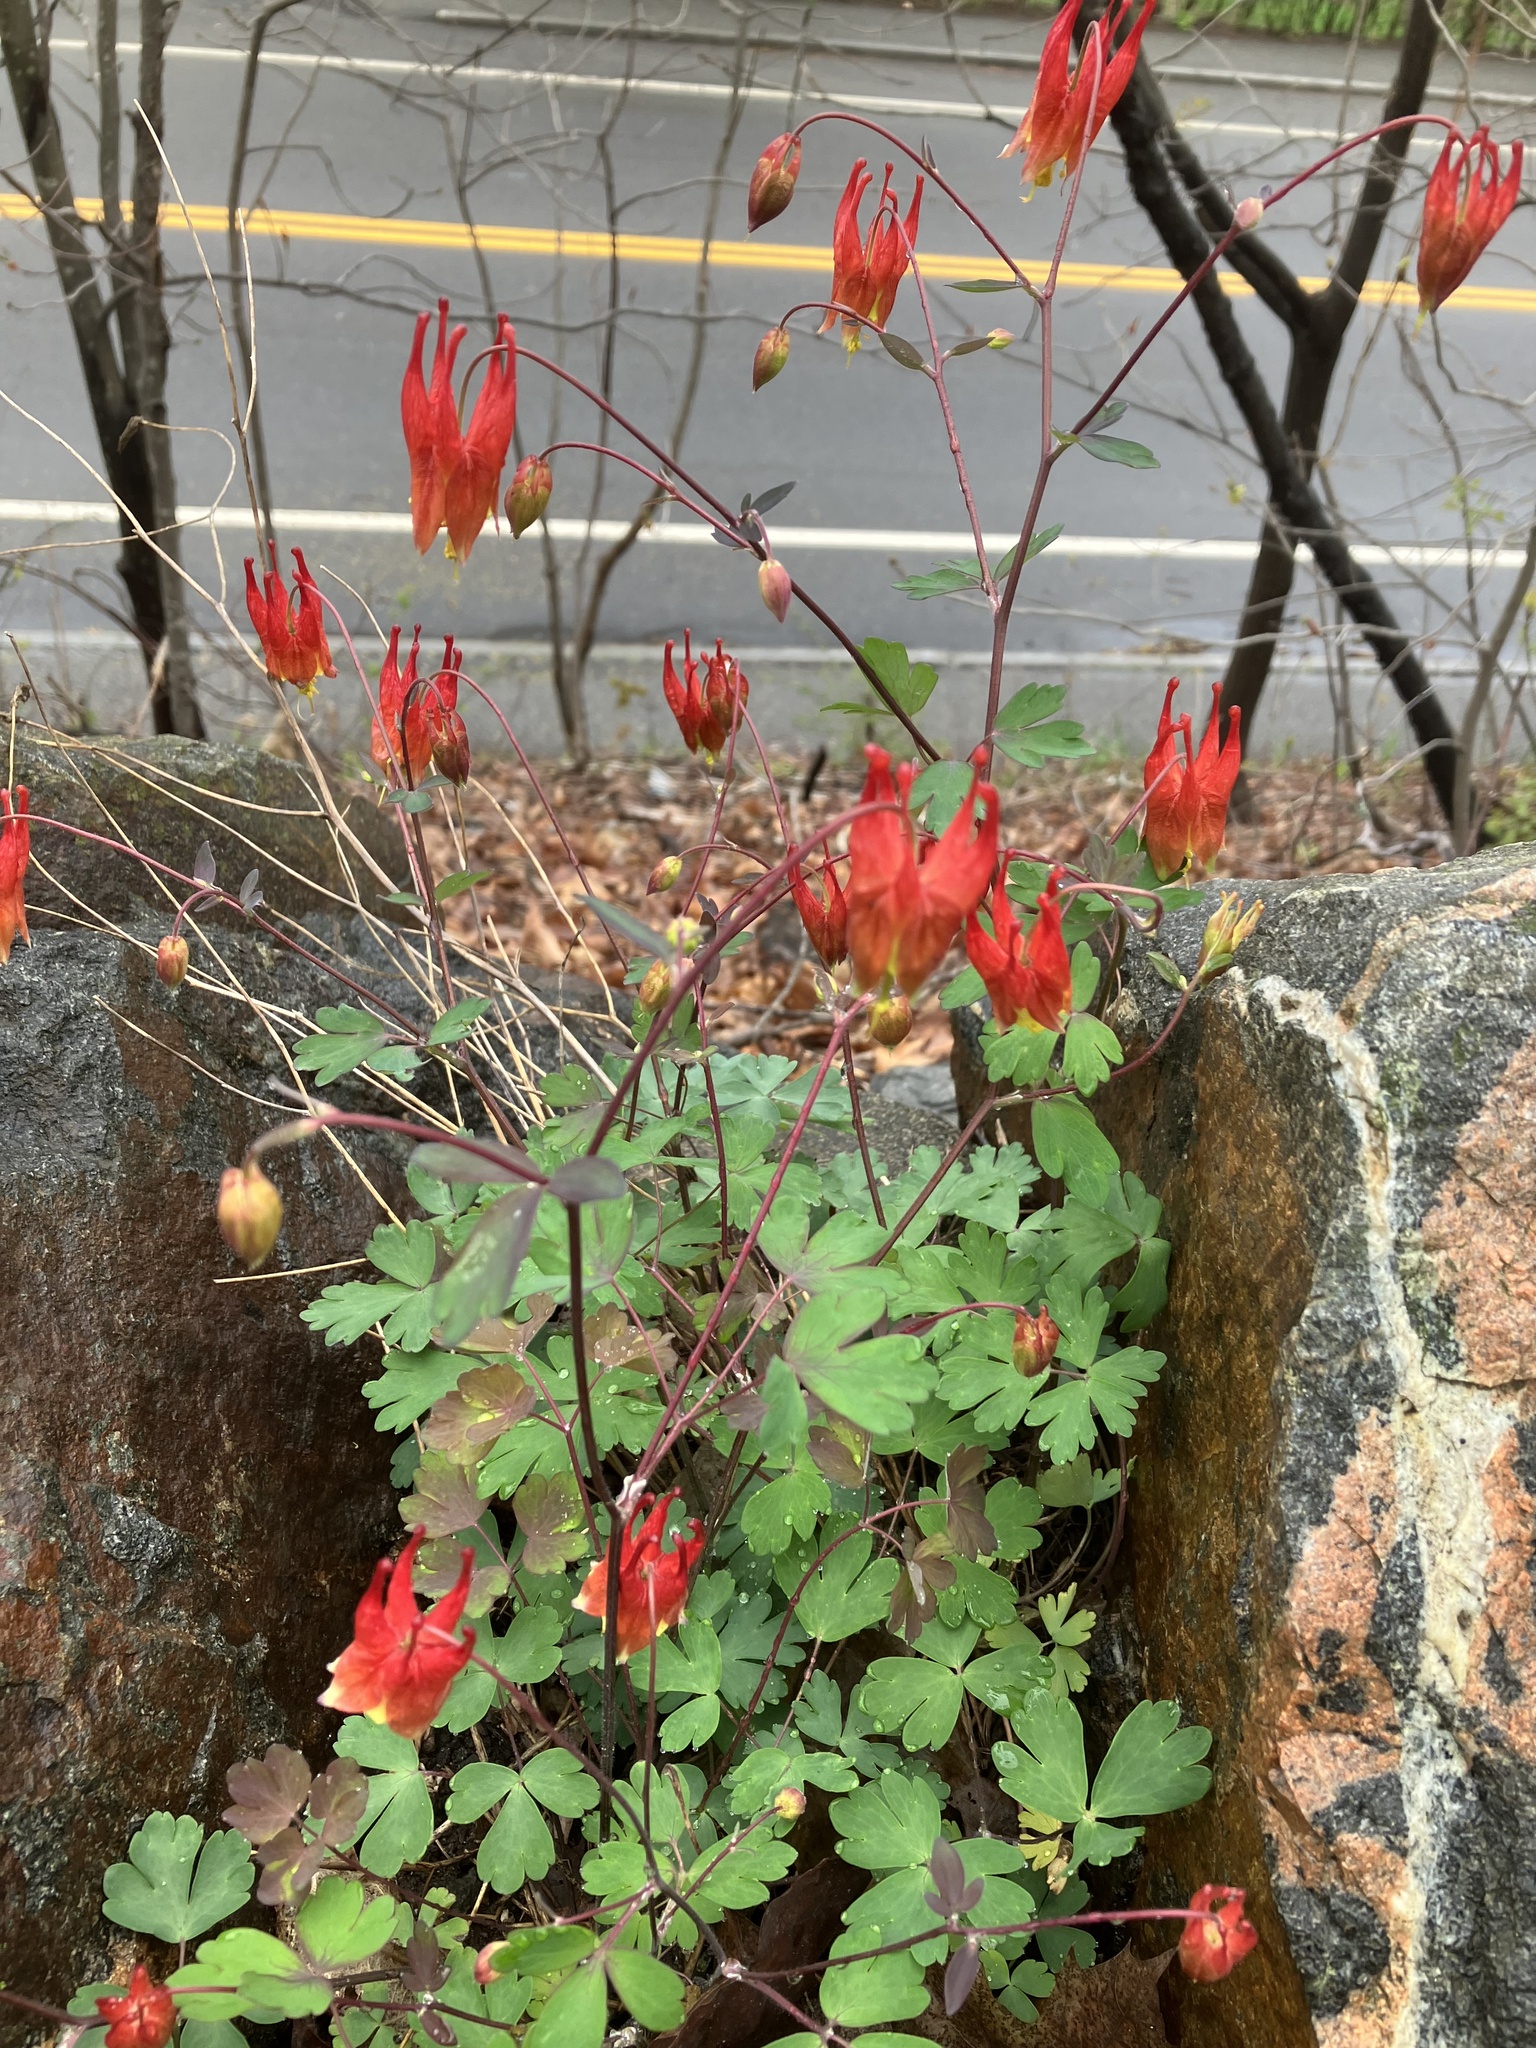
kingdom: Plantae
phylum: Tracheophyta
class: Magnoliopsida
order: Ranunculales
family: Ranunculaceae
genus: Aquilegia
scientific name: Aquilegia canadensis
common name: American columbine
